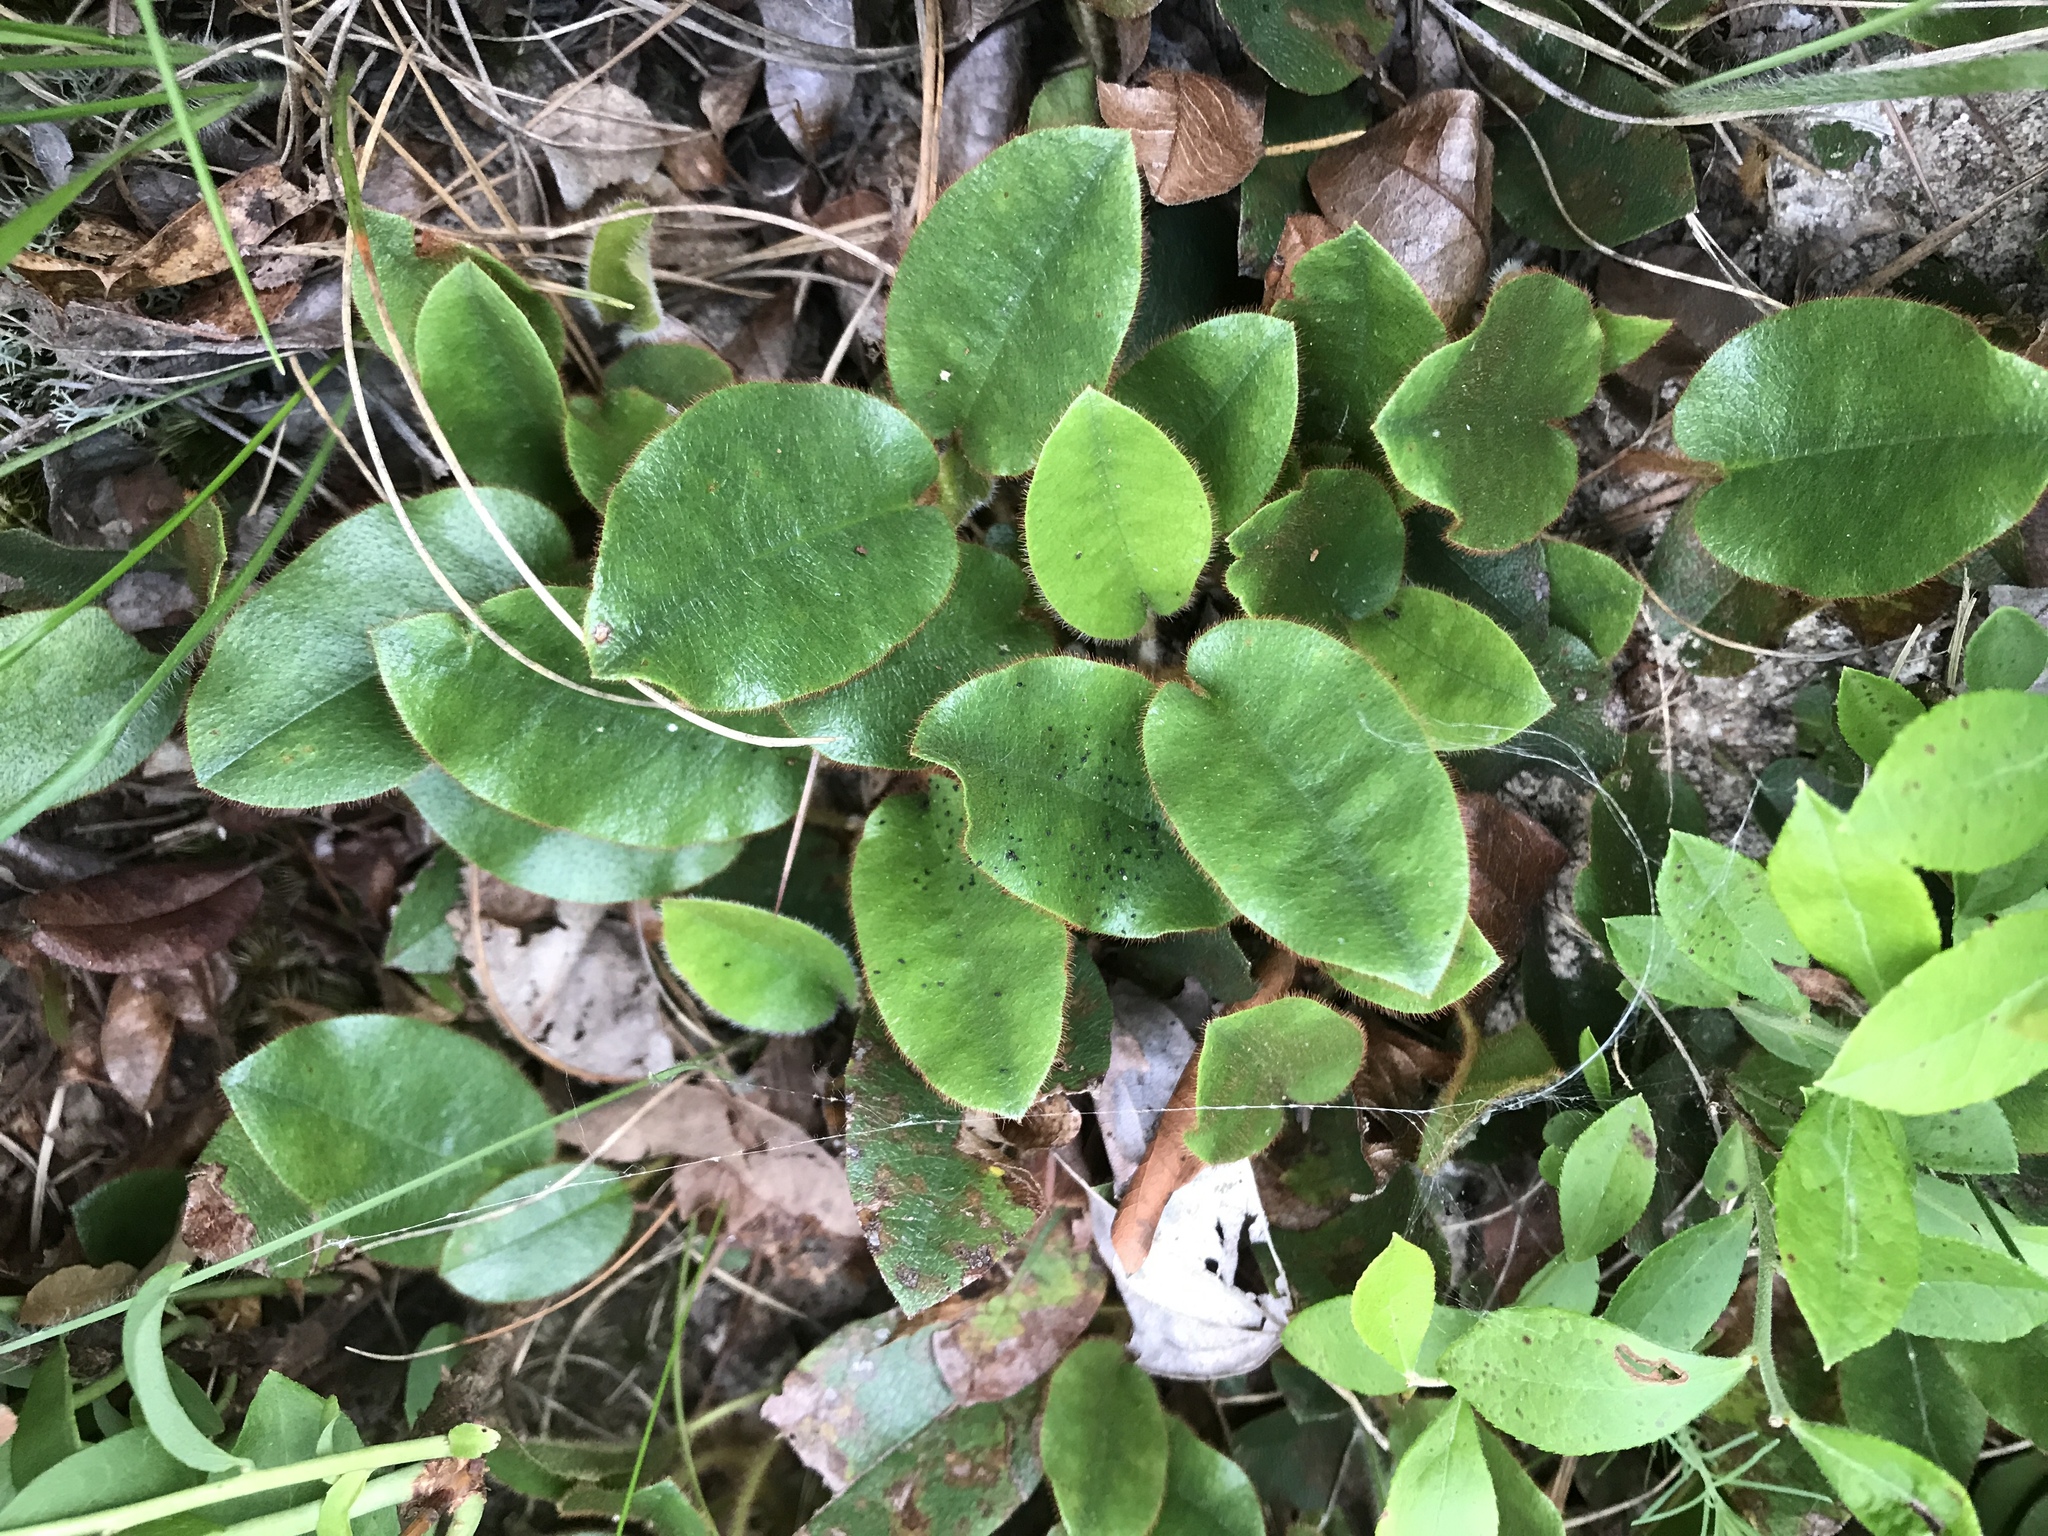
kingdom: Plantae
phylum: Tracheophyta
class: Magnoliopsida
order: Ericales
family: Ericaceae
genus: Epigaea
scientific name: Epigaea repens
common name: Gravelroot
